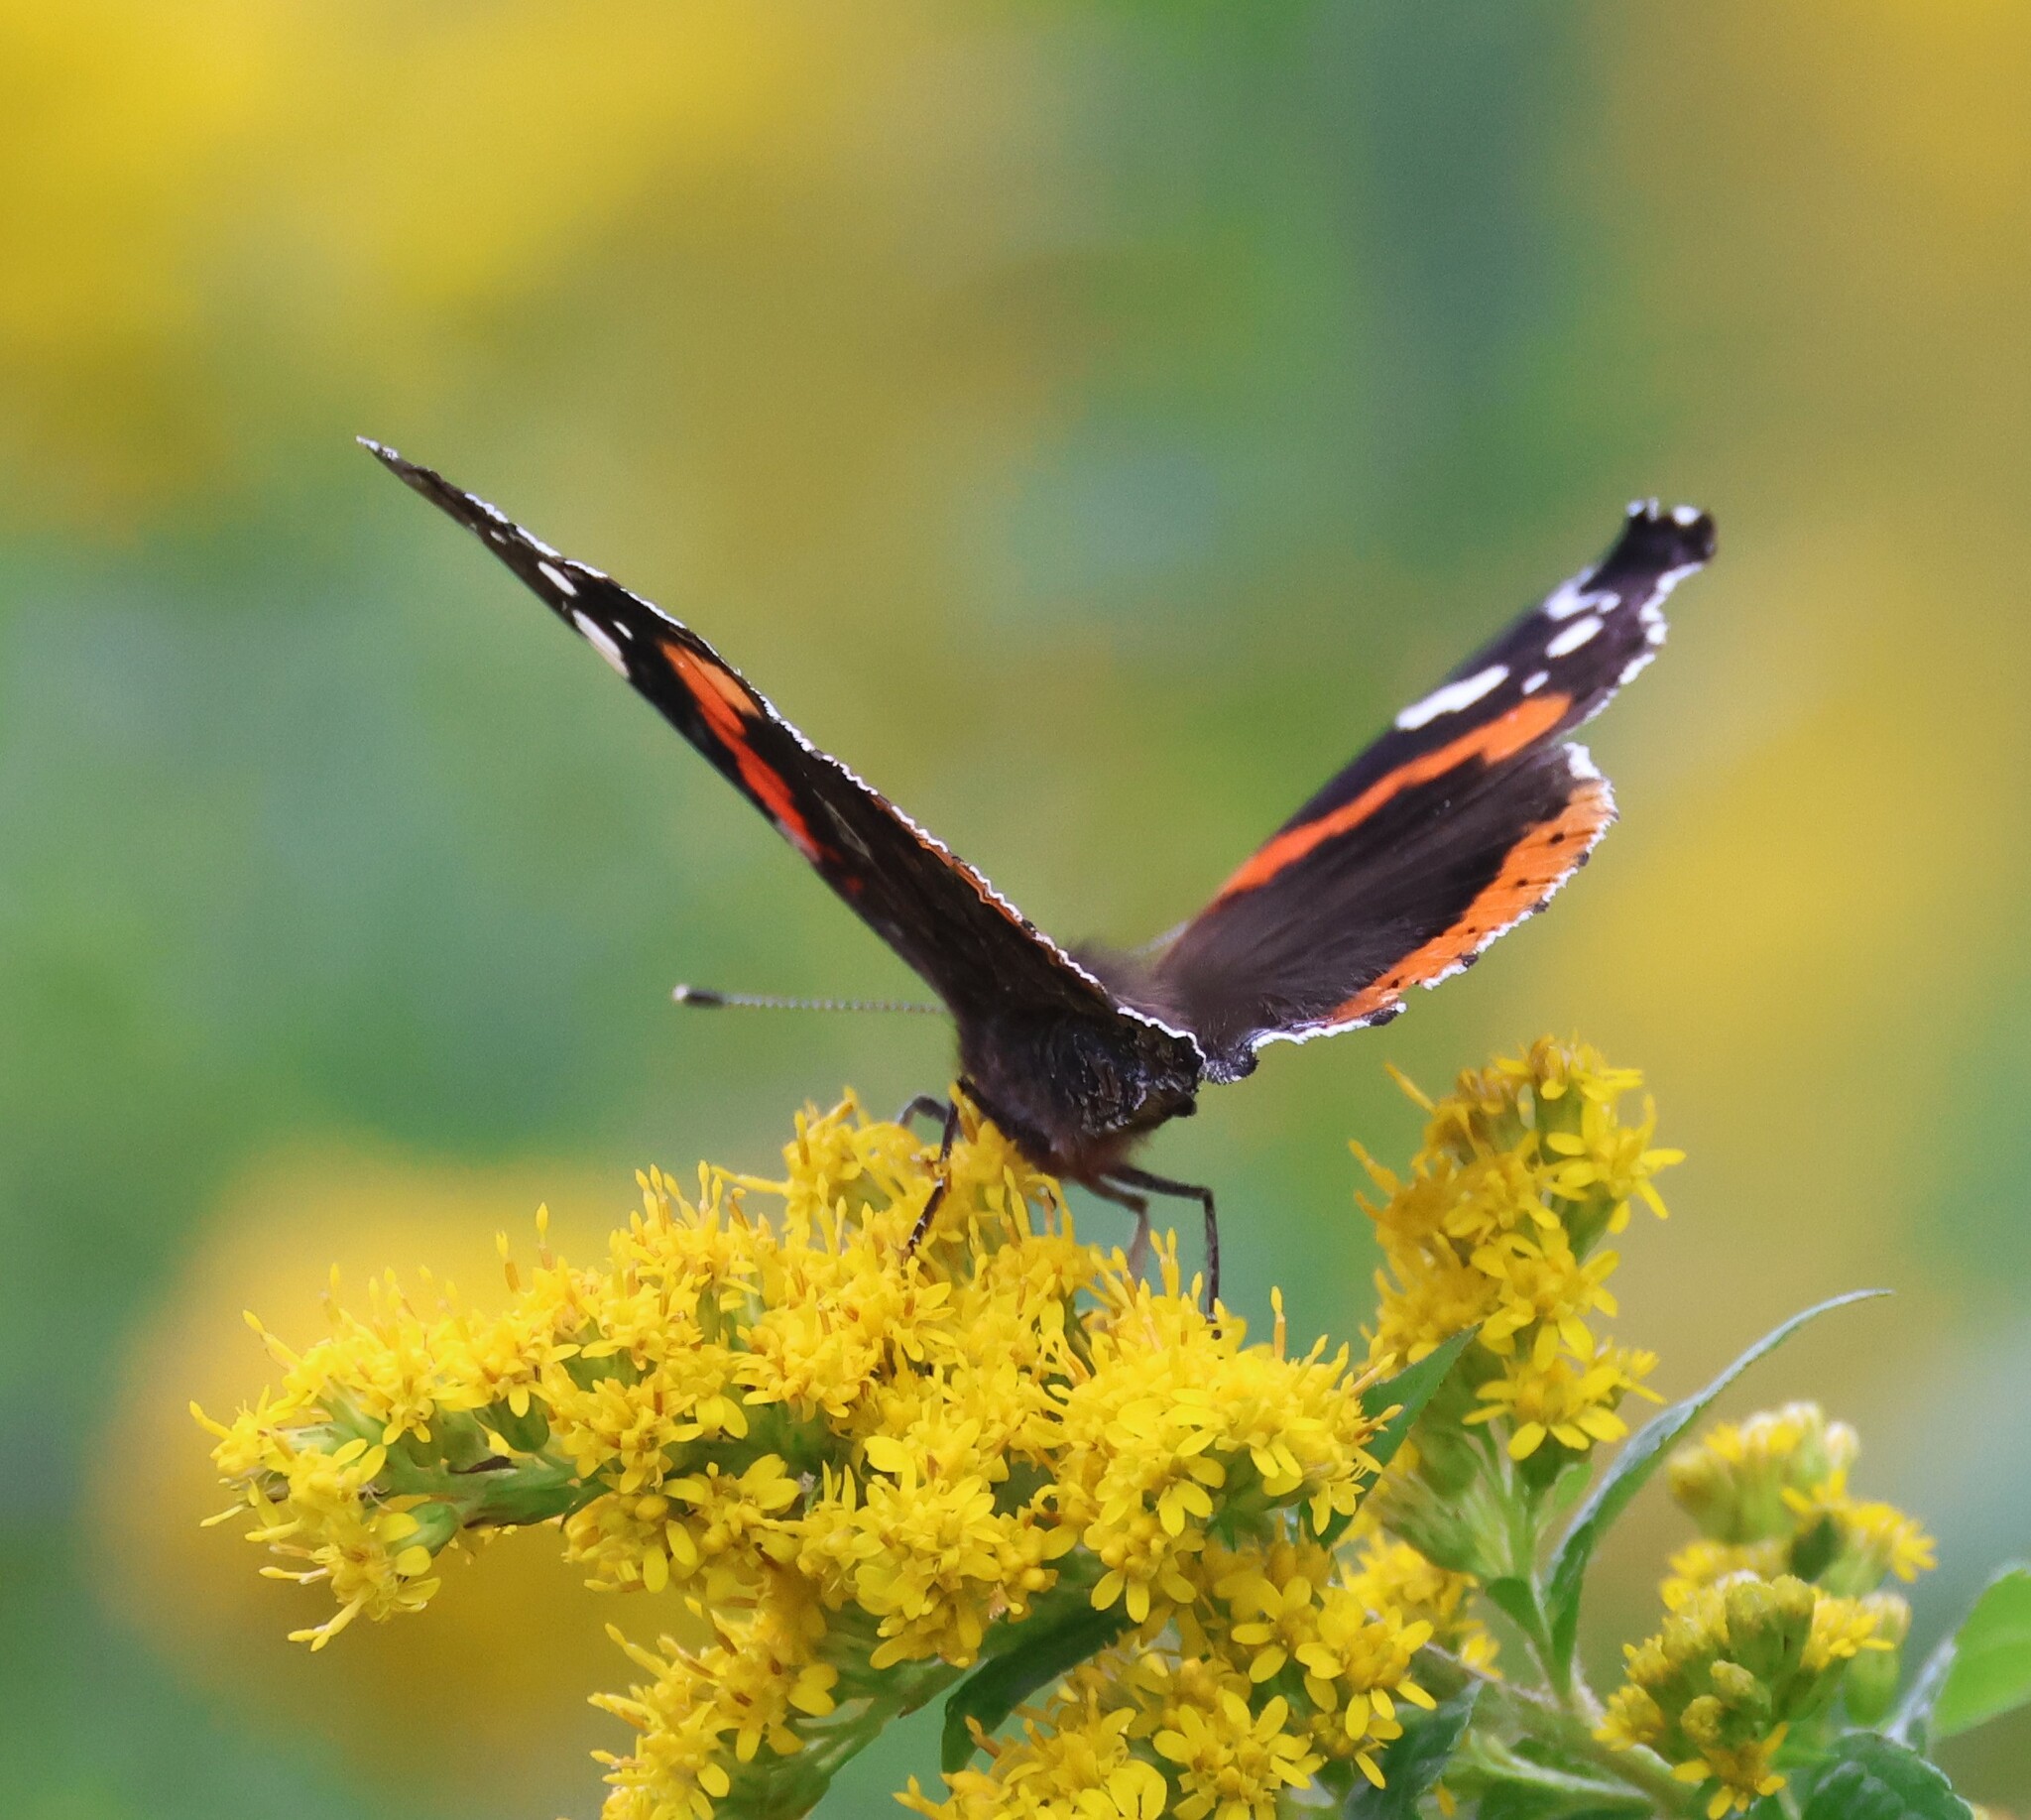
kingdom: Animalia
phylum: Arthropoda
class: Insecta
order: Lepidoptera
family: Nymphalidae
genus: Vanessa
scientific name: Vanessa atalanta
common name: Red admiral
